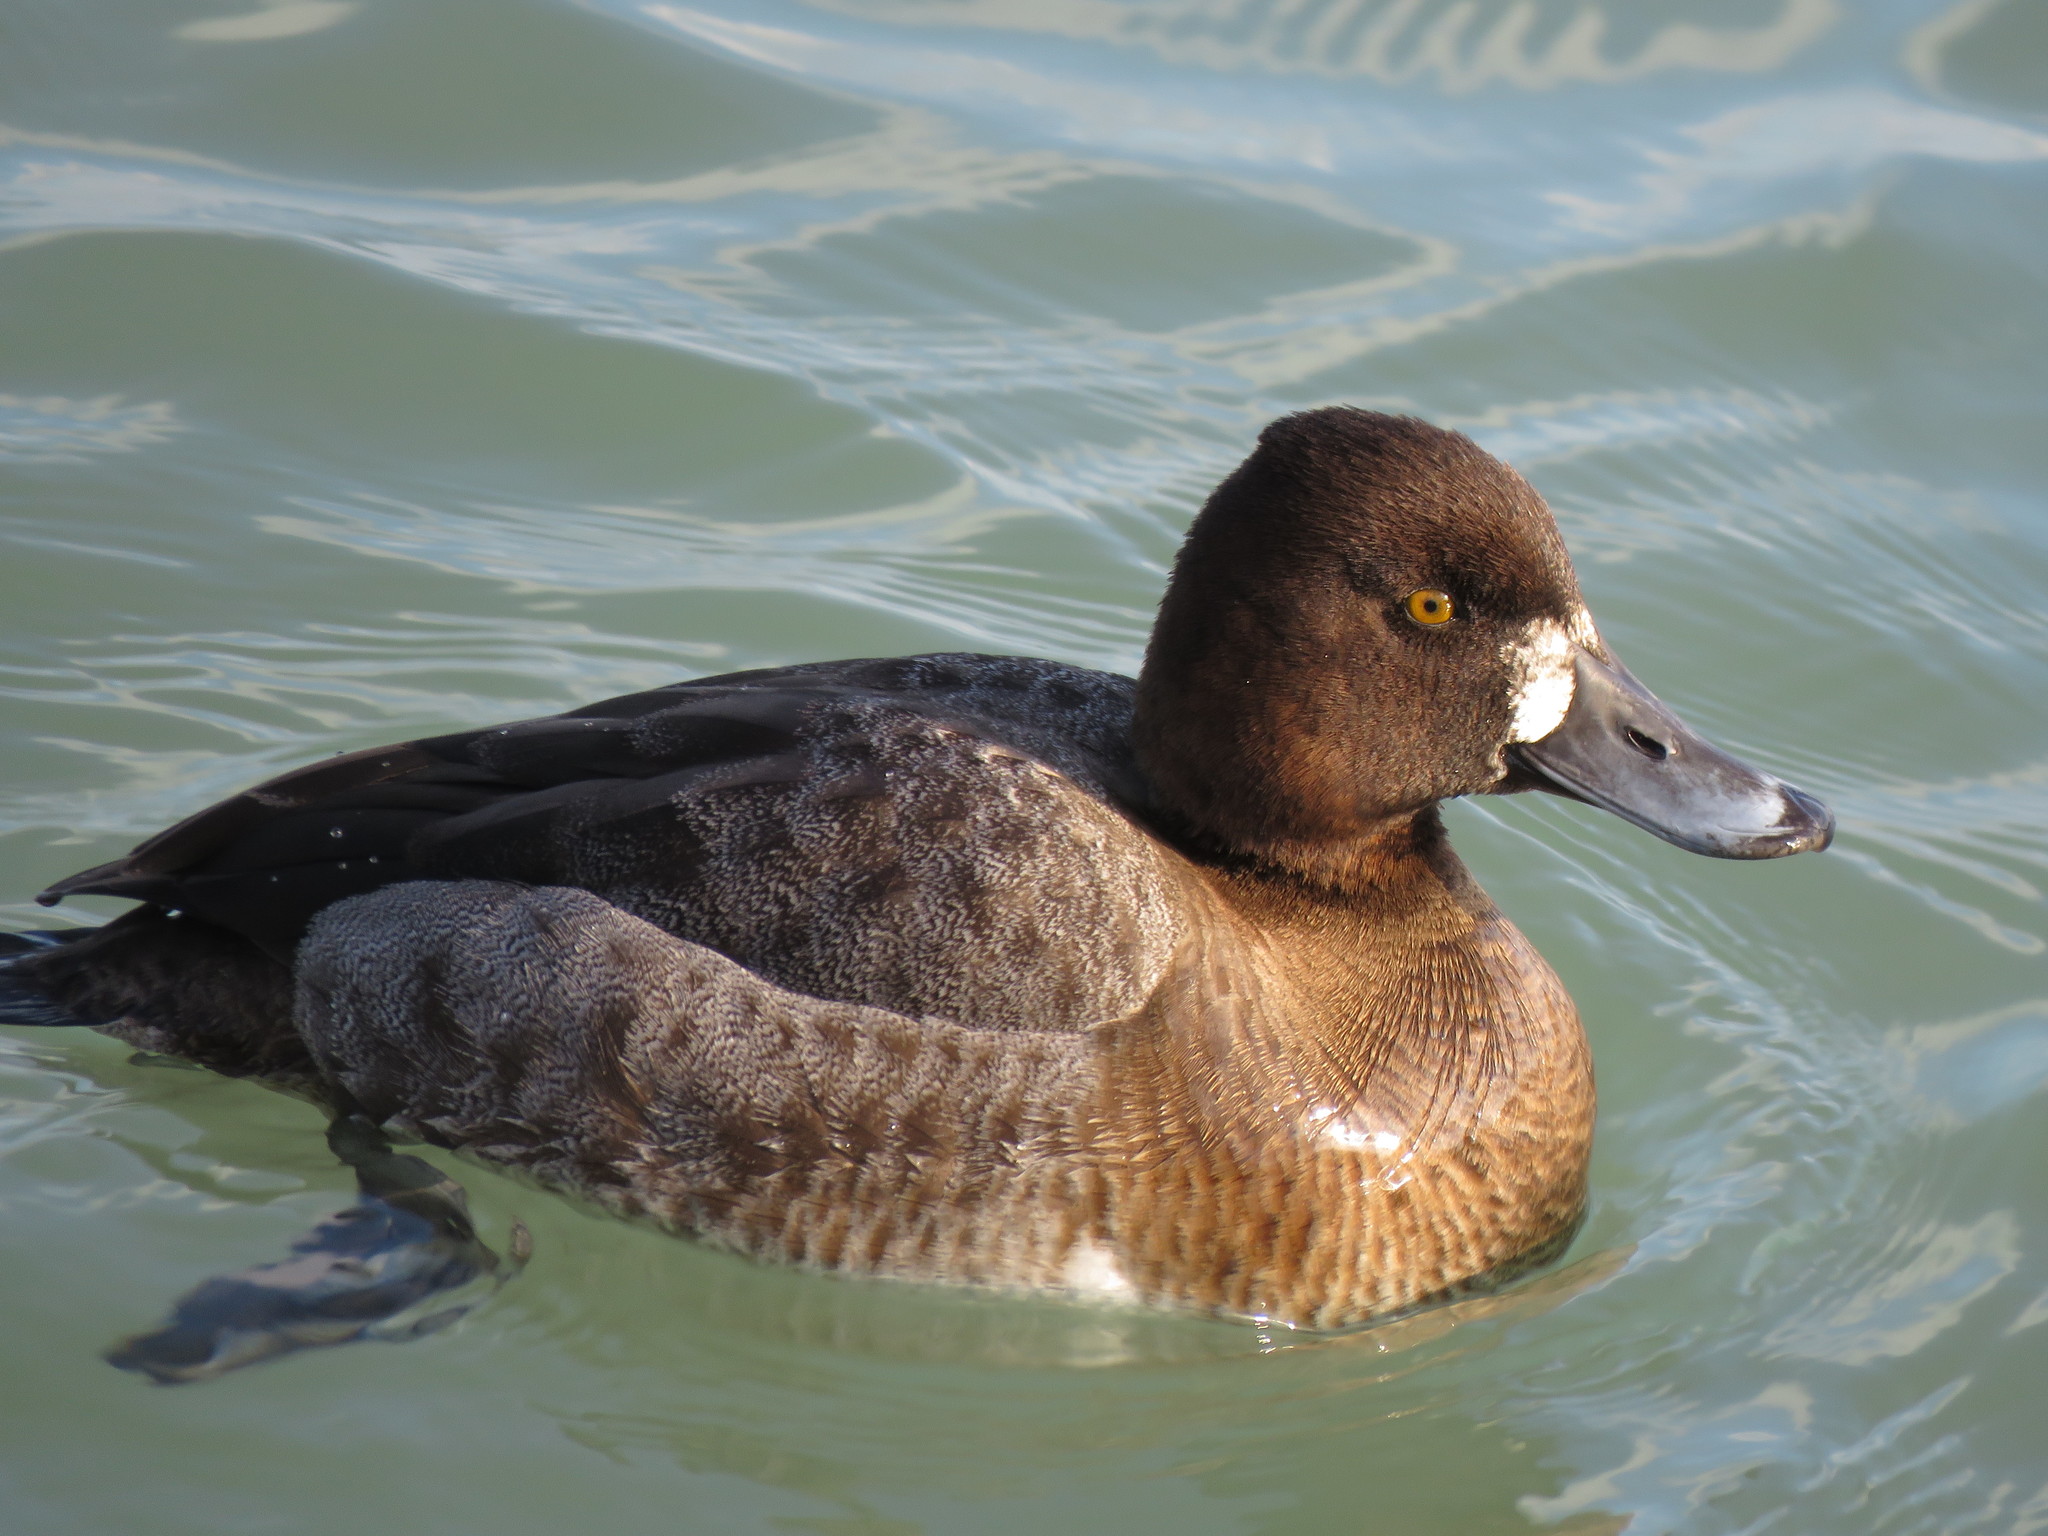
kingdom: Animalia
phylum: Chordata
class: Aves
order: Anseriformes
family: Anatidae
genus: Aythya
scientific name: Aythya affinis
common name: Lesser scaup
